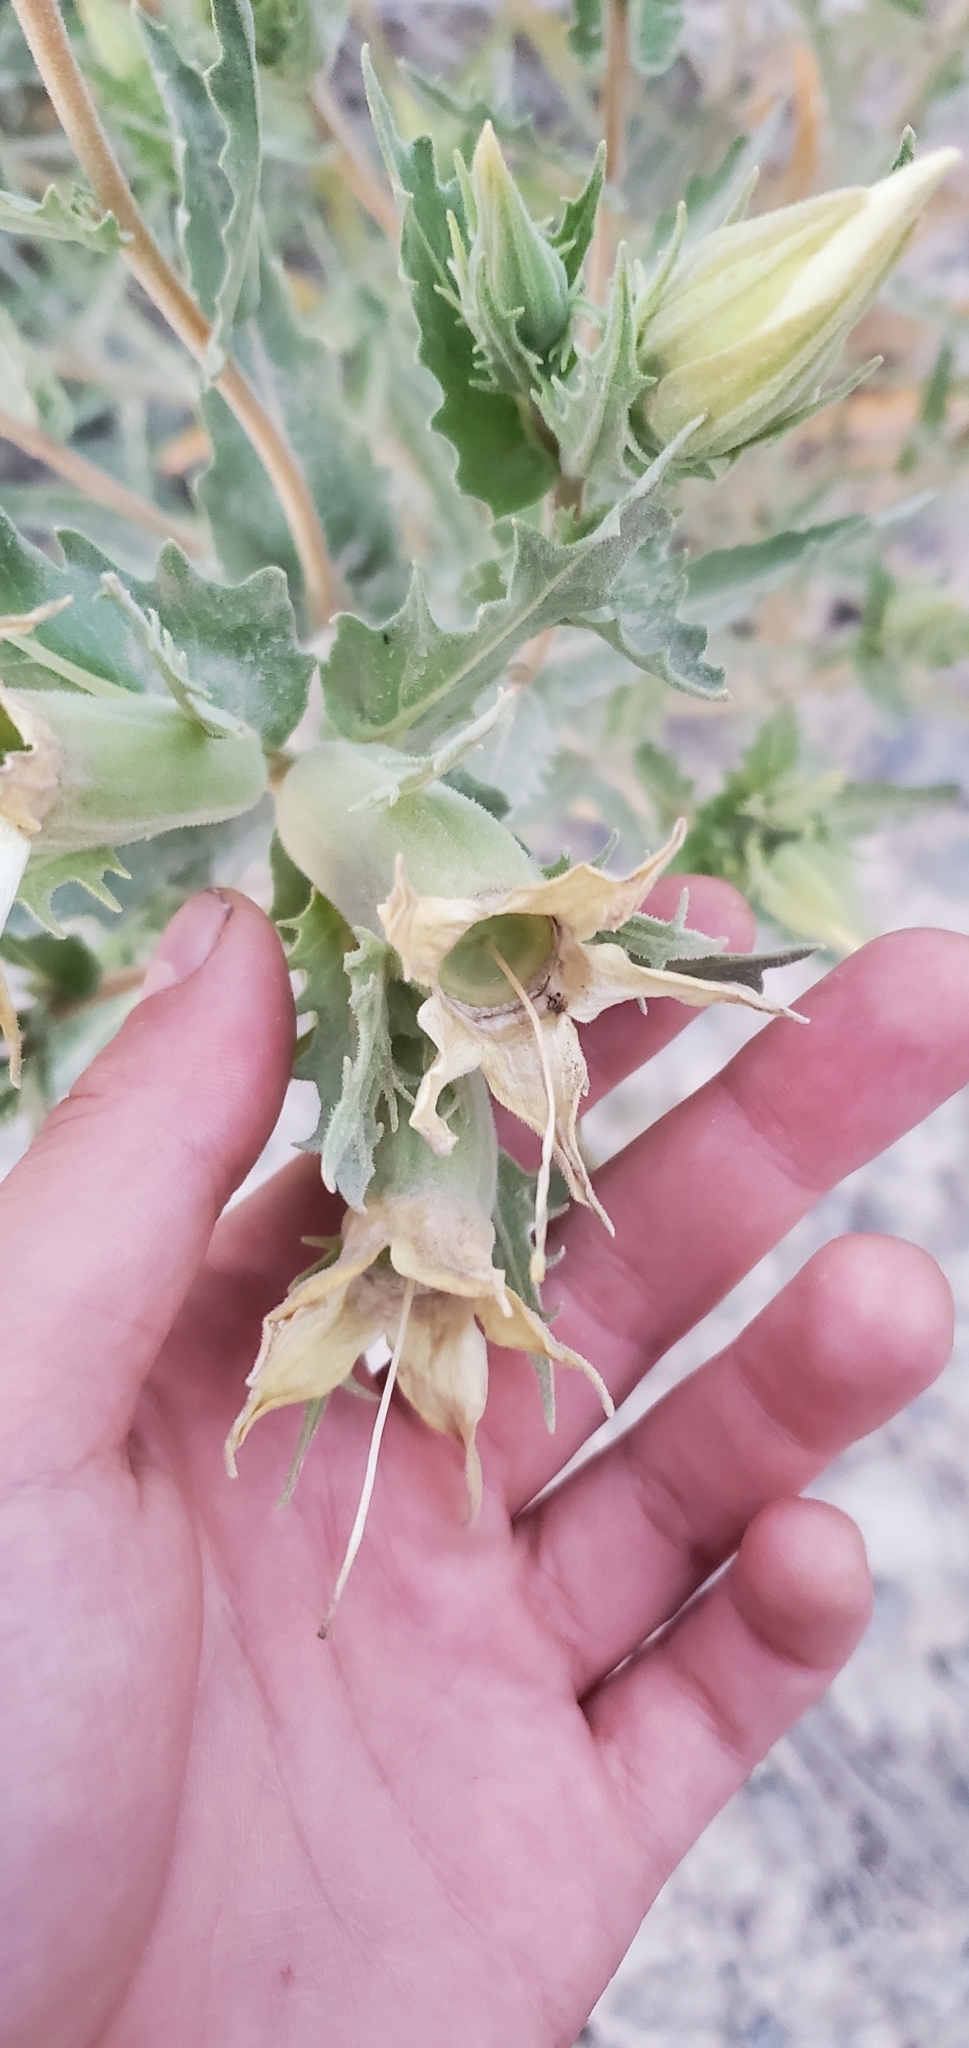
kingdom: Plantae
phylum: Tracheophyta
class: Magnoliopsida
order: Cornales
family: Loasaceae
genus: Mentzelia
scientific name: Mentzelia decapetala
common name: Gumbo-lily
